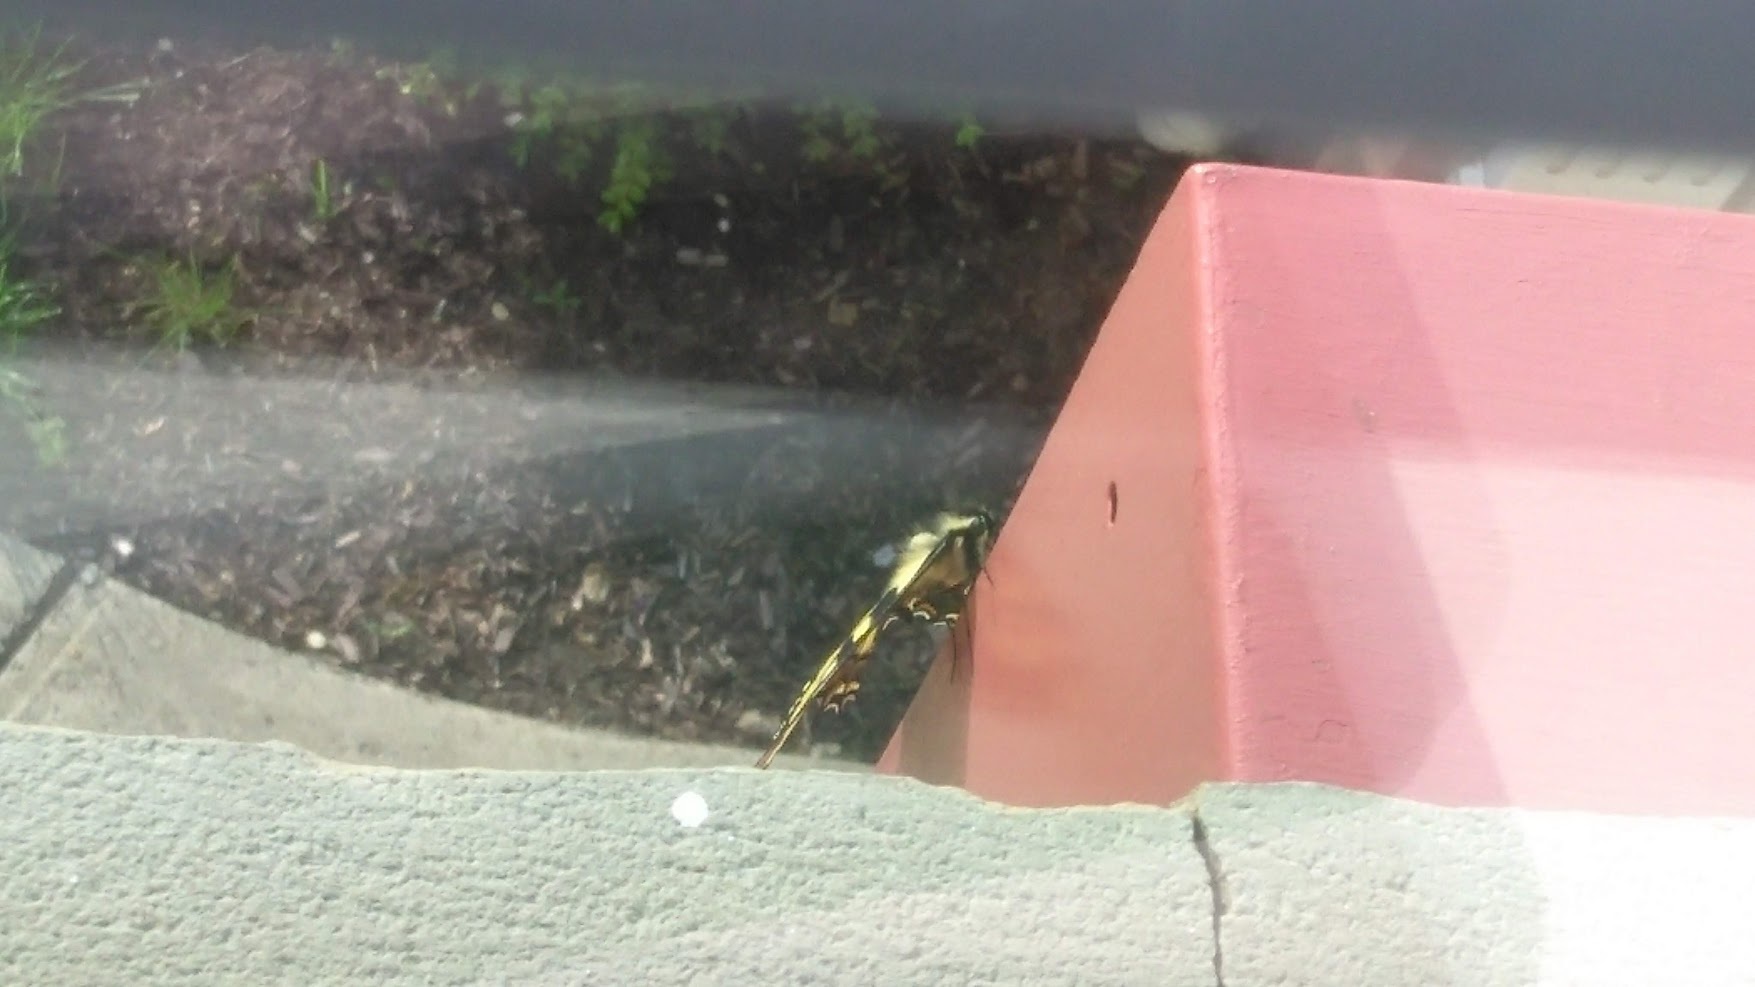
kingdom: Animalia
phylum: Arthropoda
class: Insecta
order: Lepidoptera
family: Papilionidae
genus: Papilio
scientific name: Papilio glaucus
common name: Tiger swallowtail
